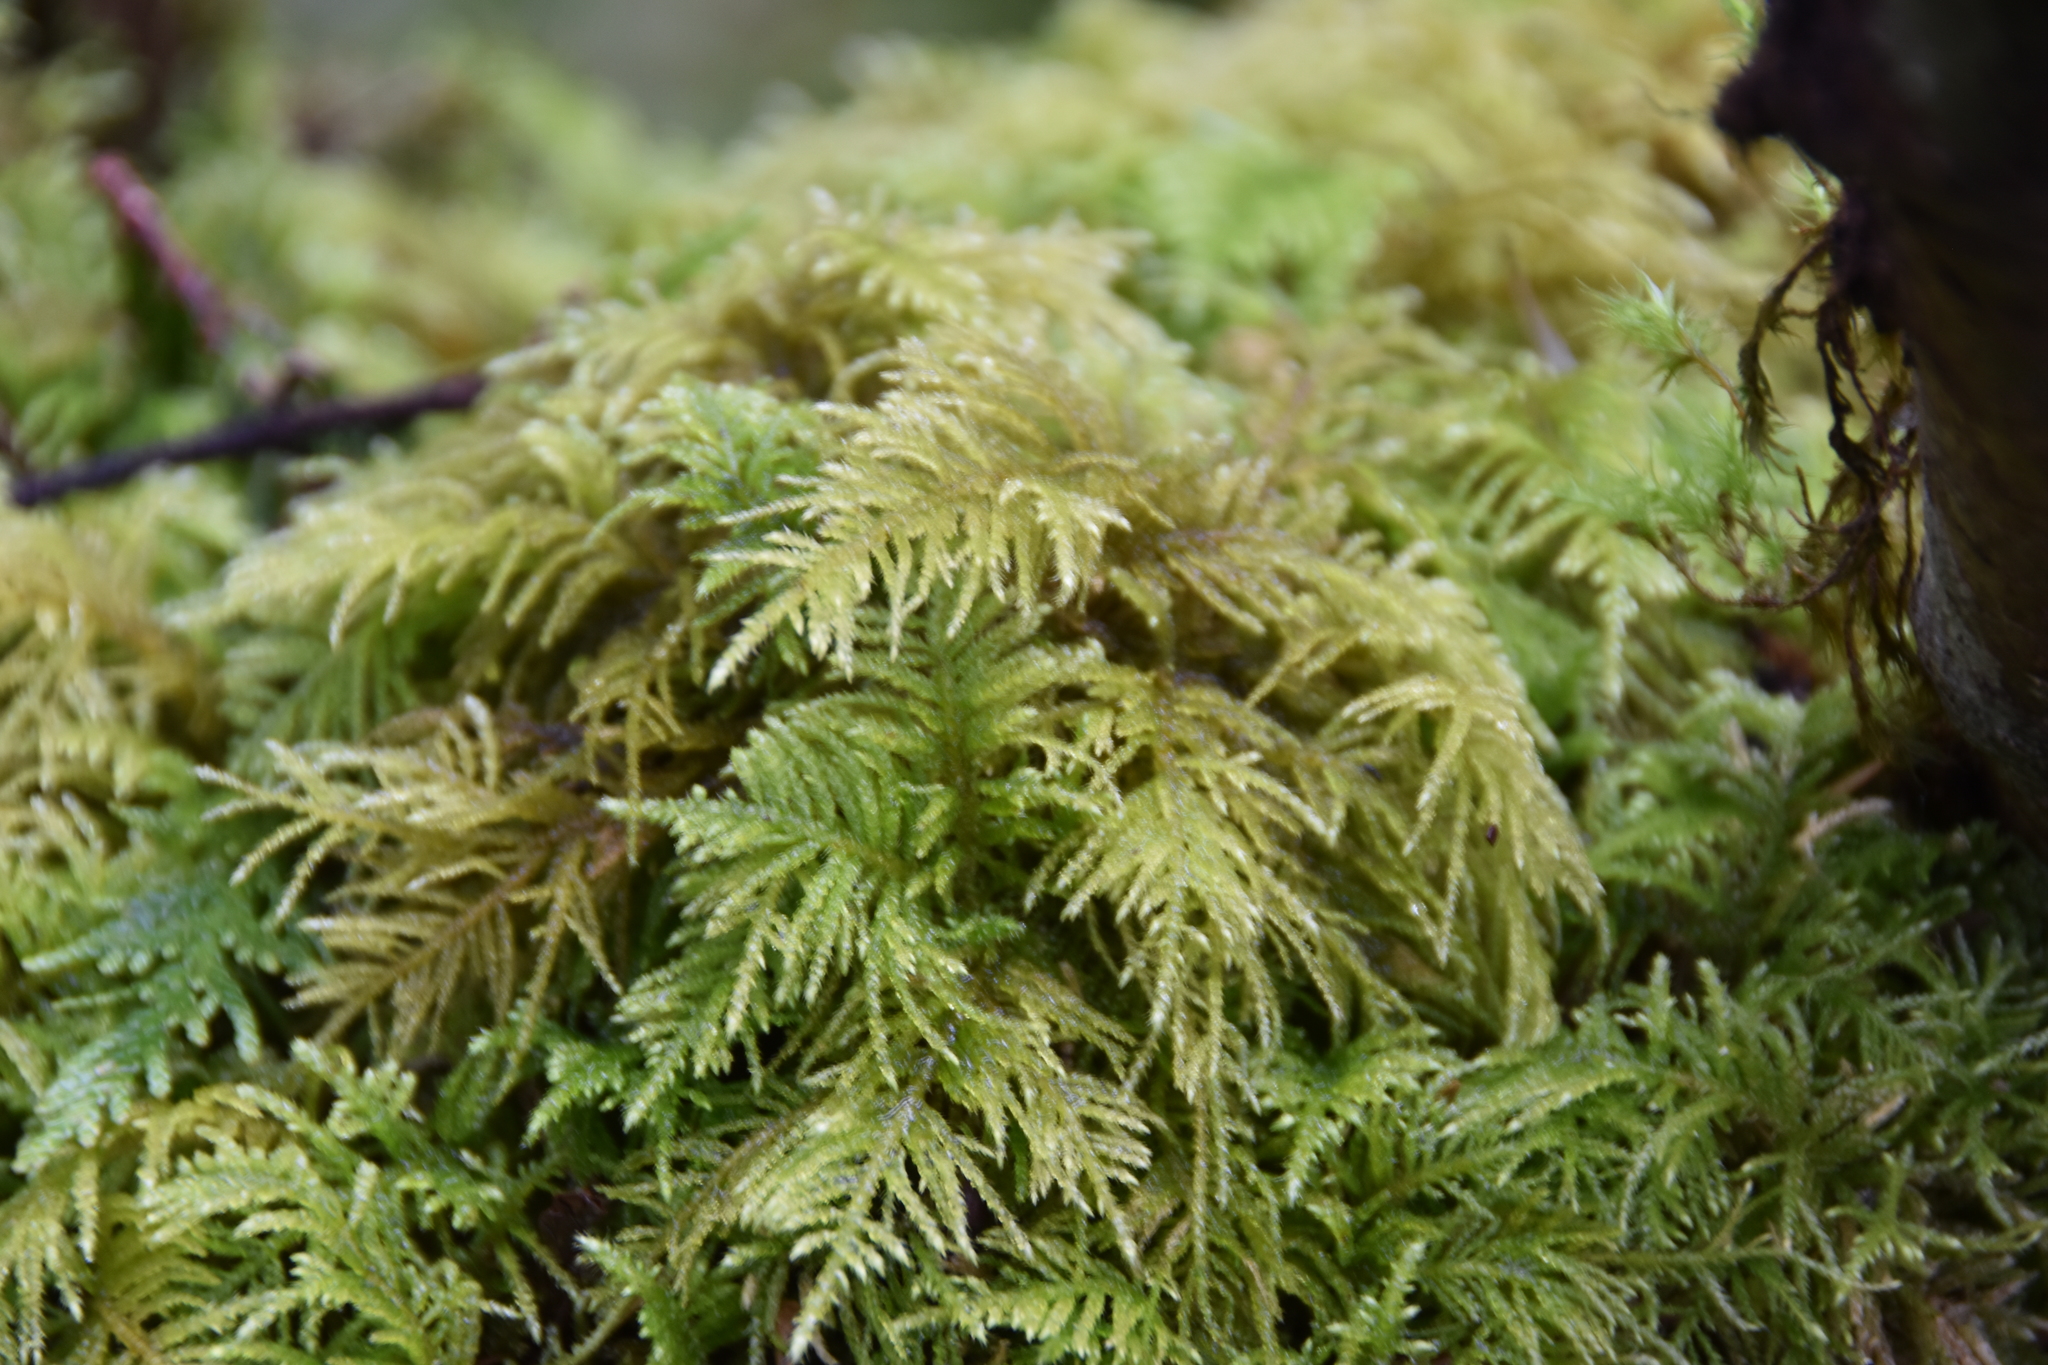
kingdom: Plantae
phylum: Bryophyta
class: Bryopsida
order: Hypnales
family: Brachytheciaceae
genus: Kindbergia
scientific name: Kindbergia oregana
